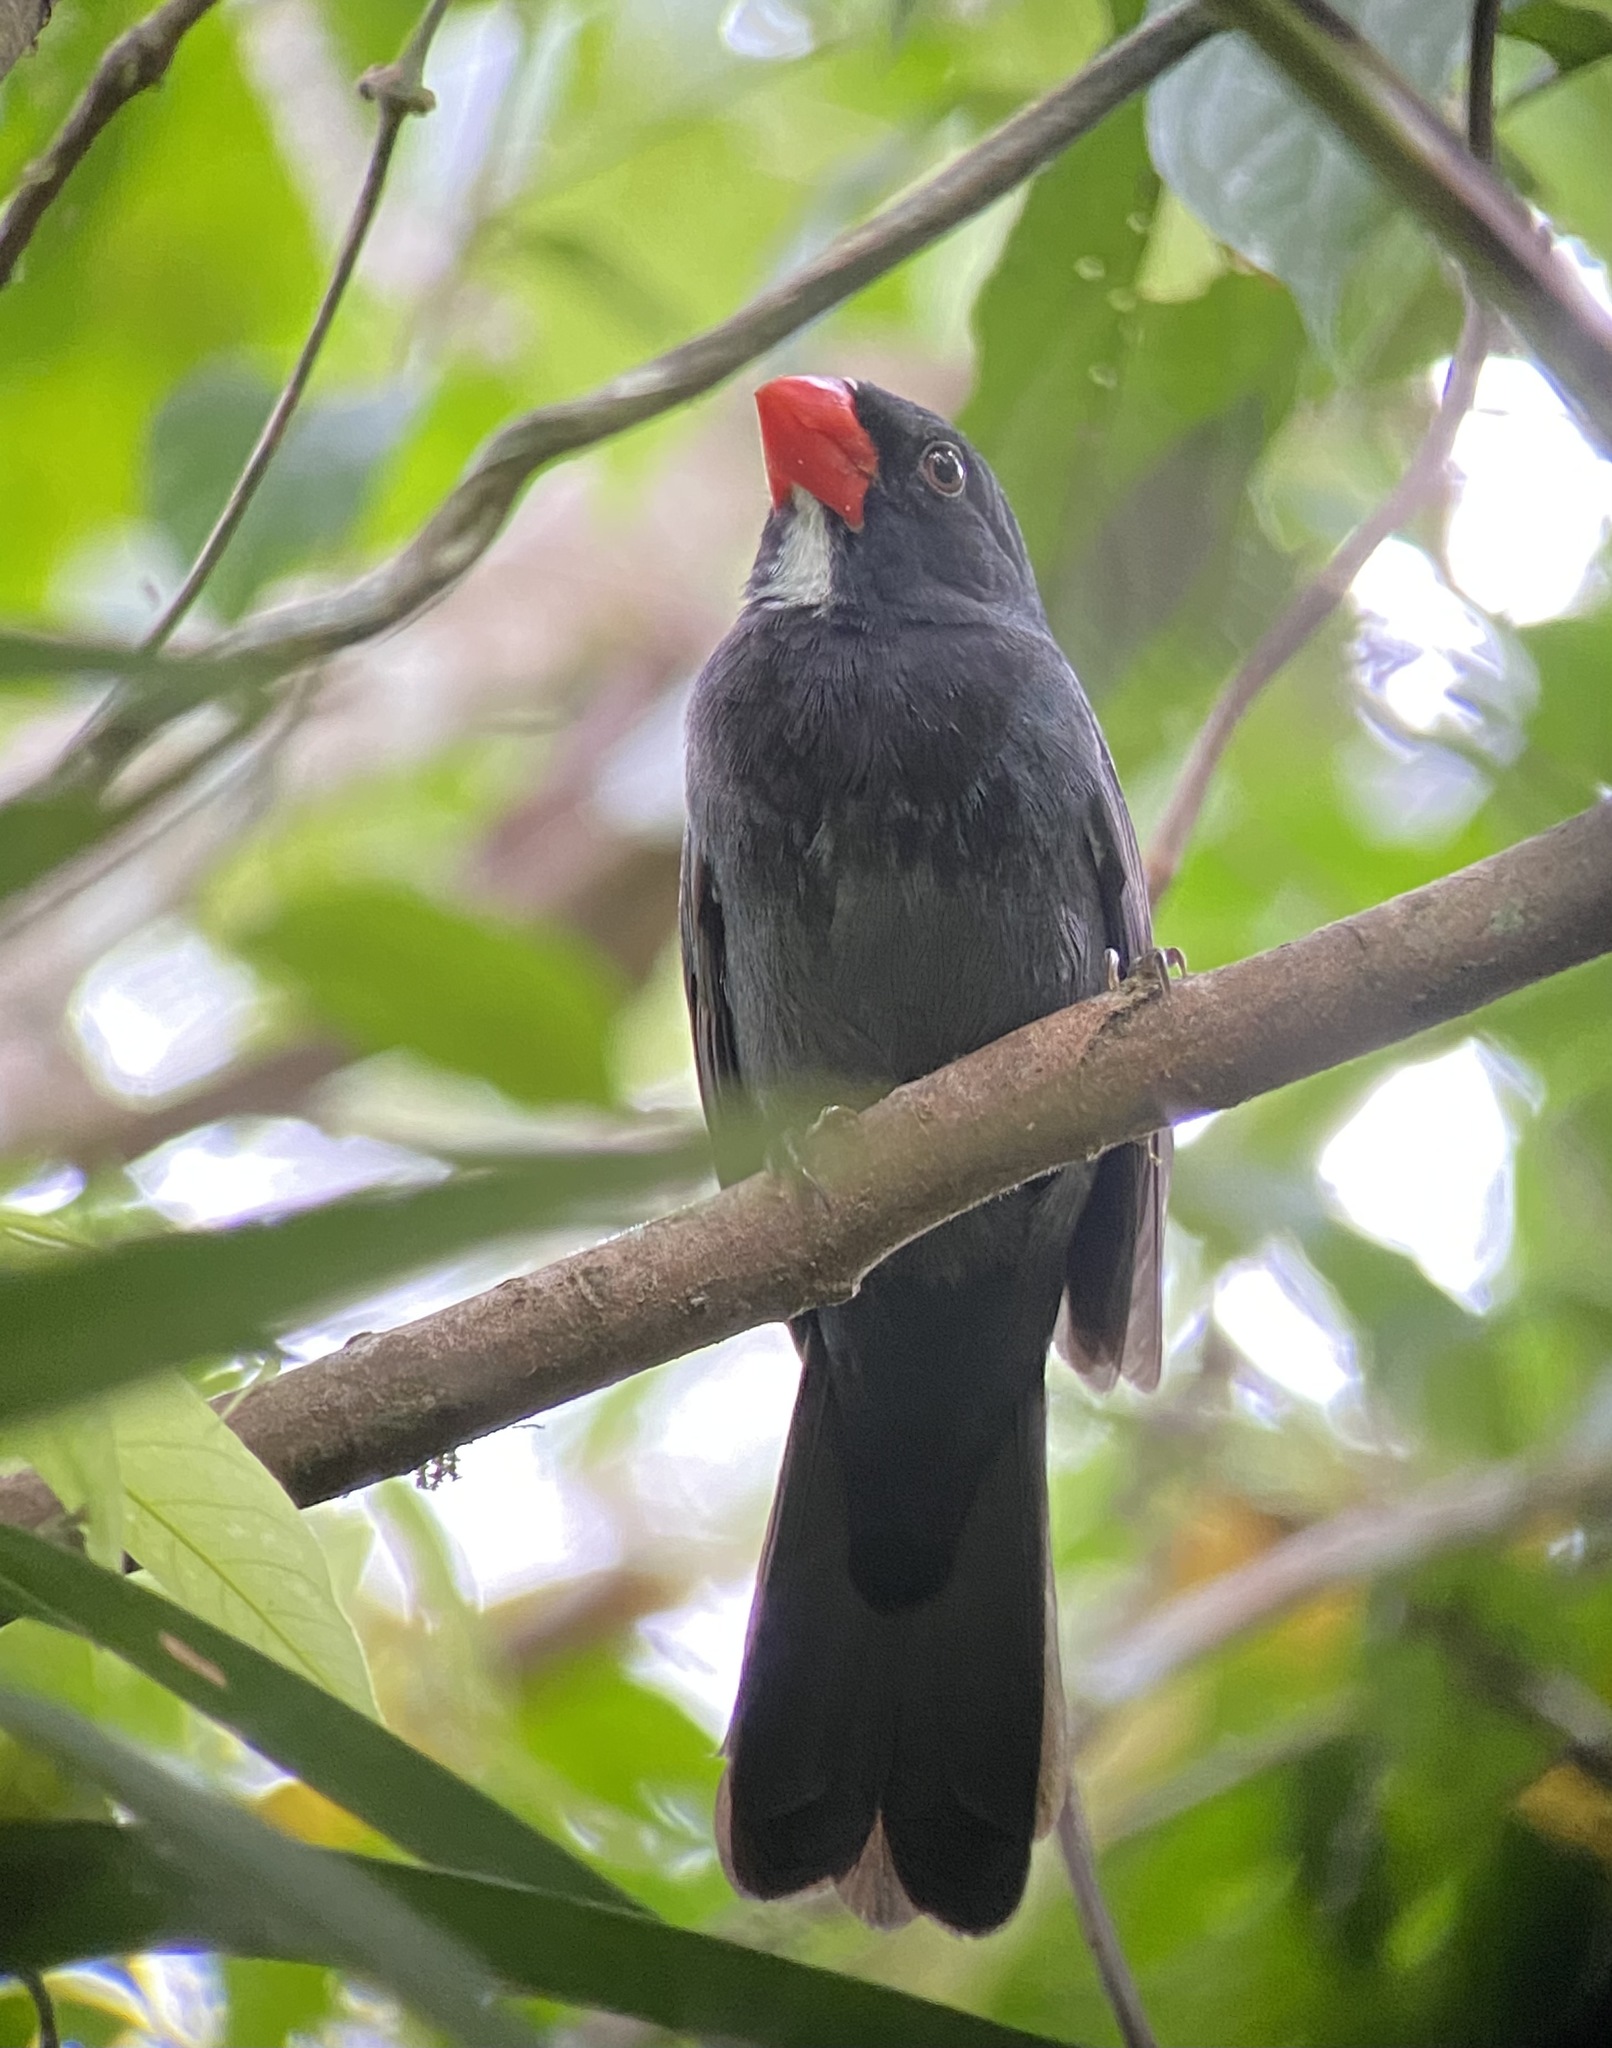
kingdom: Animalia
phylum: Chordata
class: Aves
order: Passeriformes
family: Thraupidae
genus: Saltator
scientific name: Saltator grossus
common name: Slate-colored grosbeak
